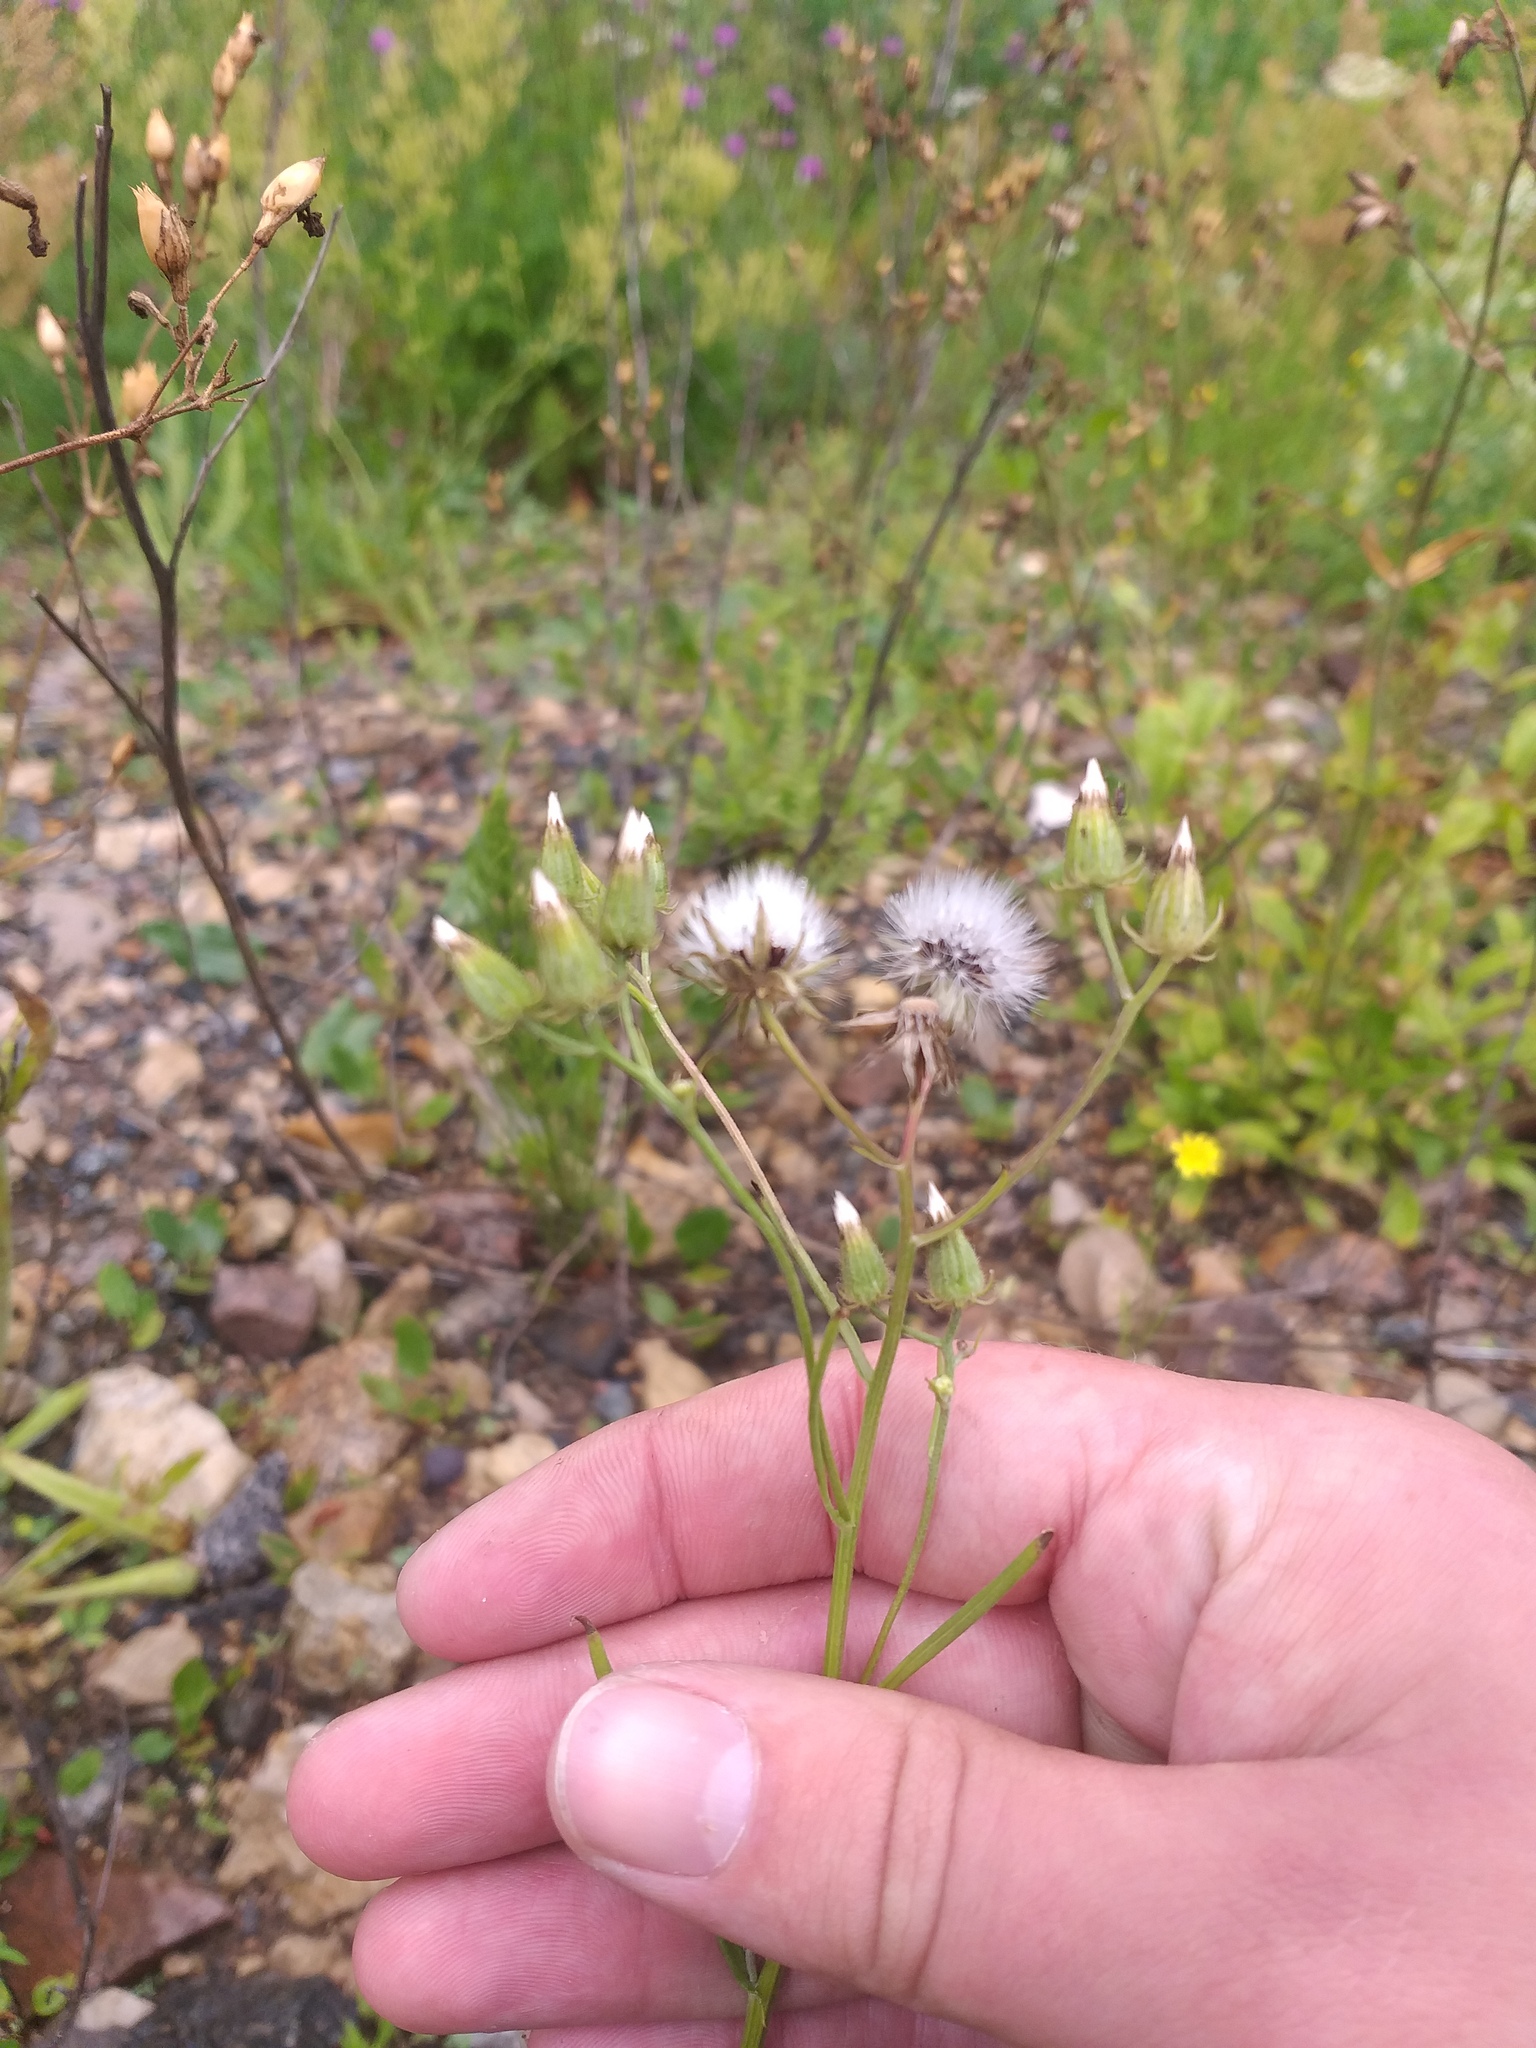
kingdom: Plantae
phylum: Tracheophyta
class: Magnoliopsida
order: Asterales
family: Asteraceae
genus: Crepis
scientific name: Crepis tectorum
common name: Narrow-leaved hawk's-beard
